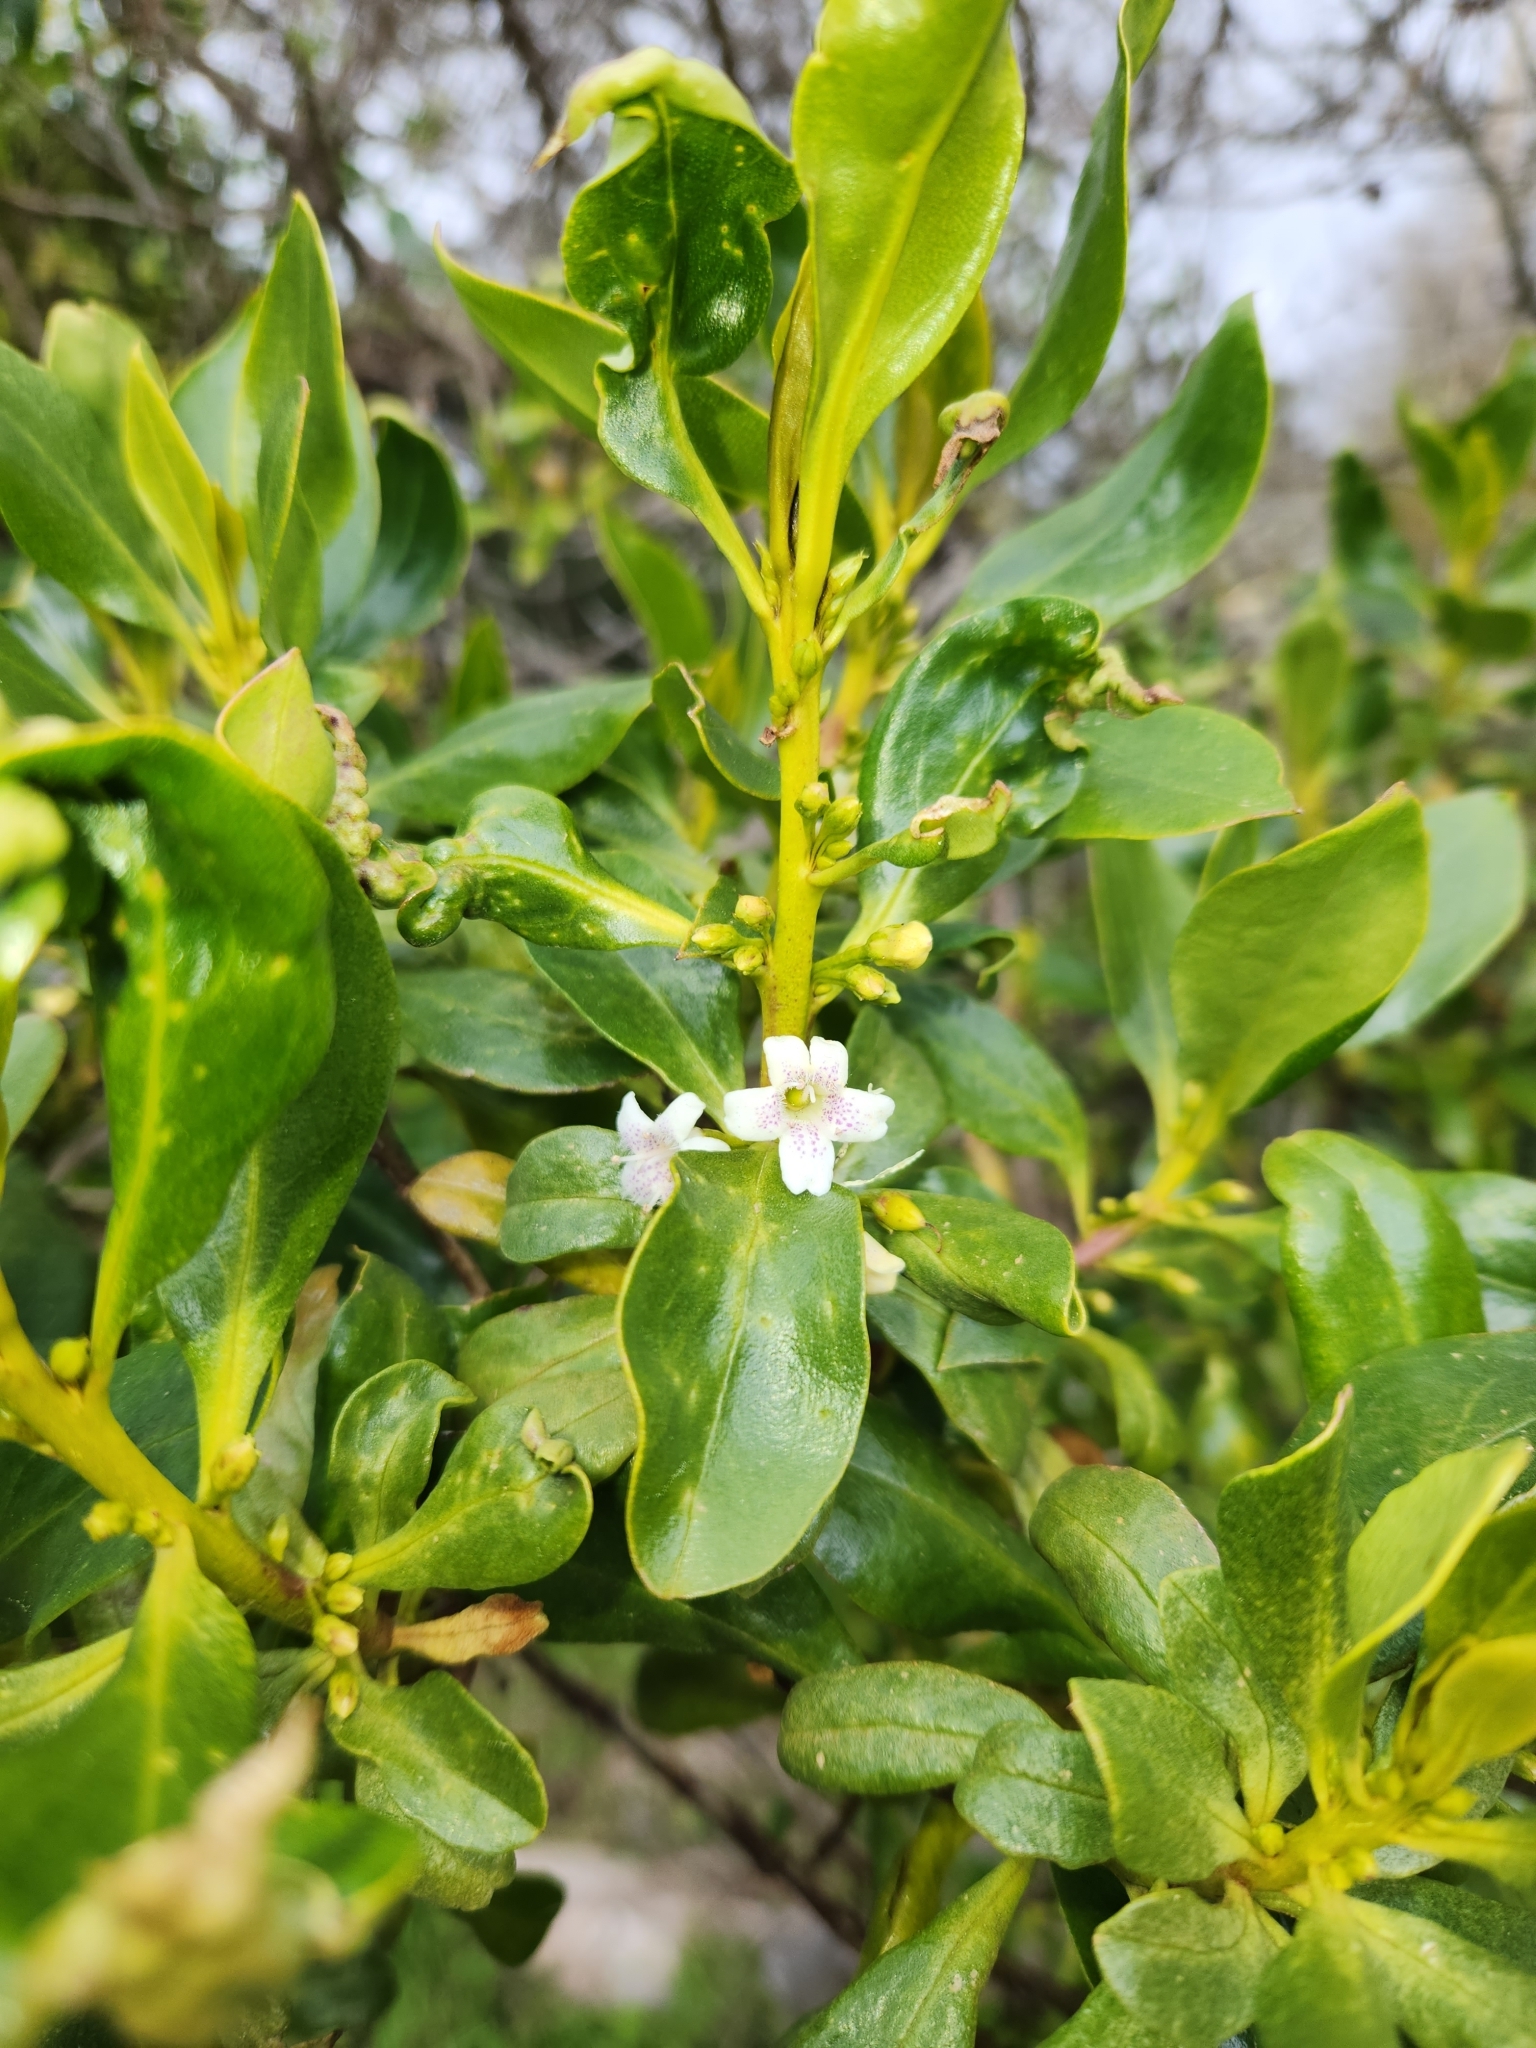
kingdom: Plantae
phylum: Tracheophyta
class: Magnoliopsida
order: Lamiales
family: Scrophulariaceae
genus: Myoporum
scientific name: Myoporum laetum
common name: Ngaio tree
